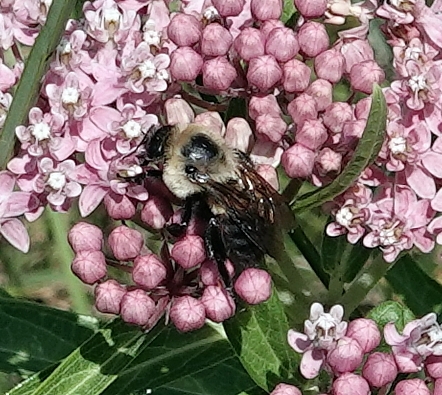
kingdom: Animalia
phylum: Arthropoda
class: Insecta
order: Hymenoptera
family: Apidae
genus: Bombus
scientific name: Bombus griseocollis
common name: Brown-belted bumble bee
